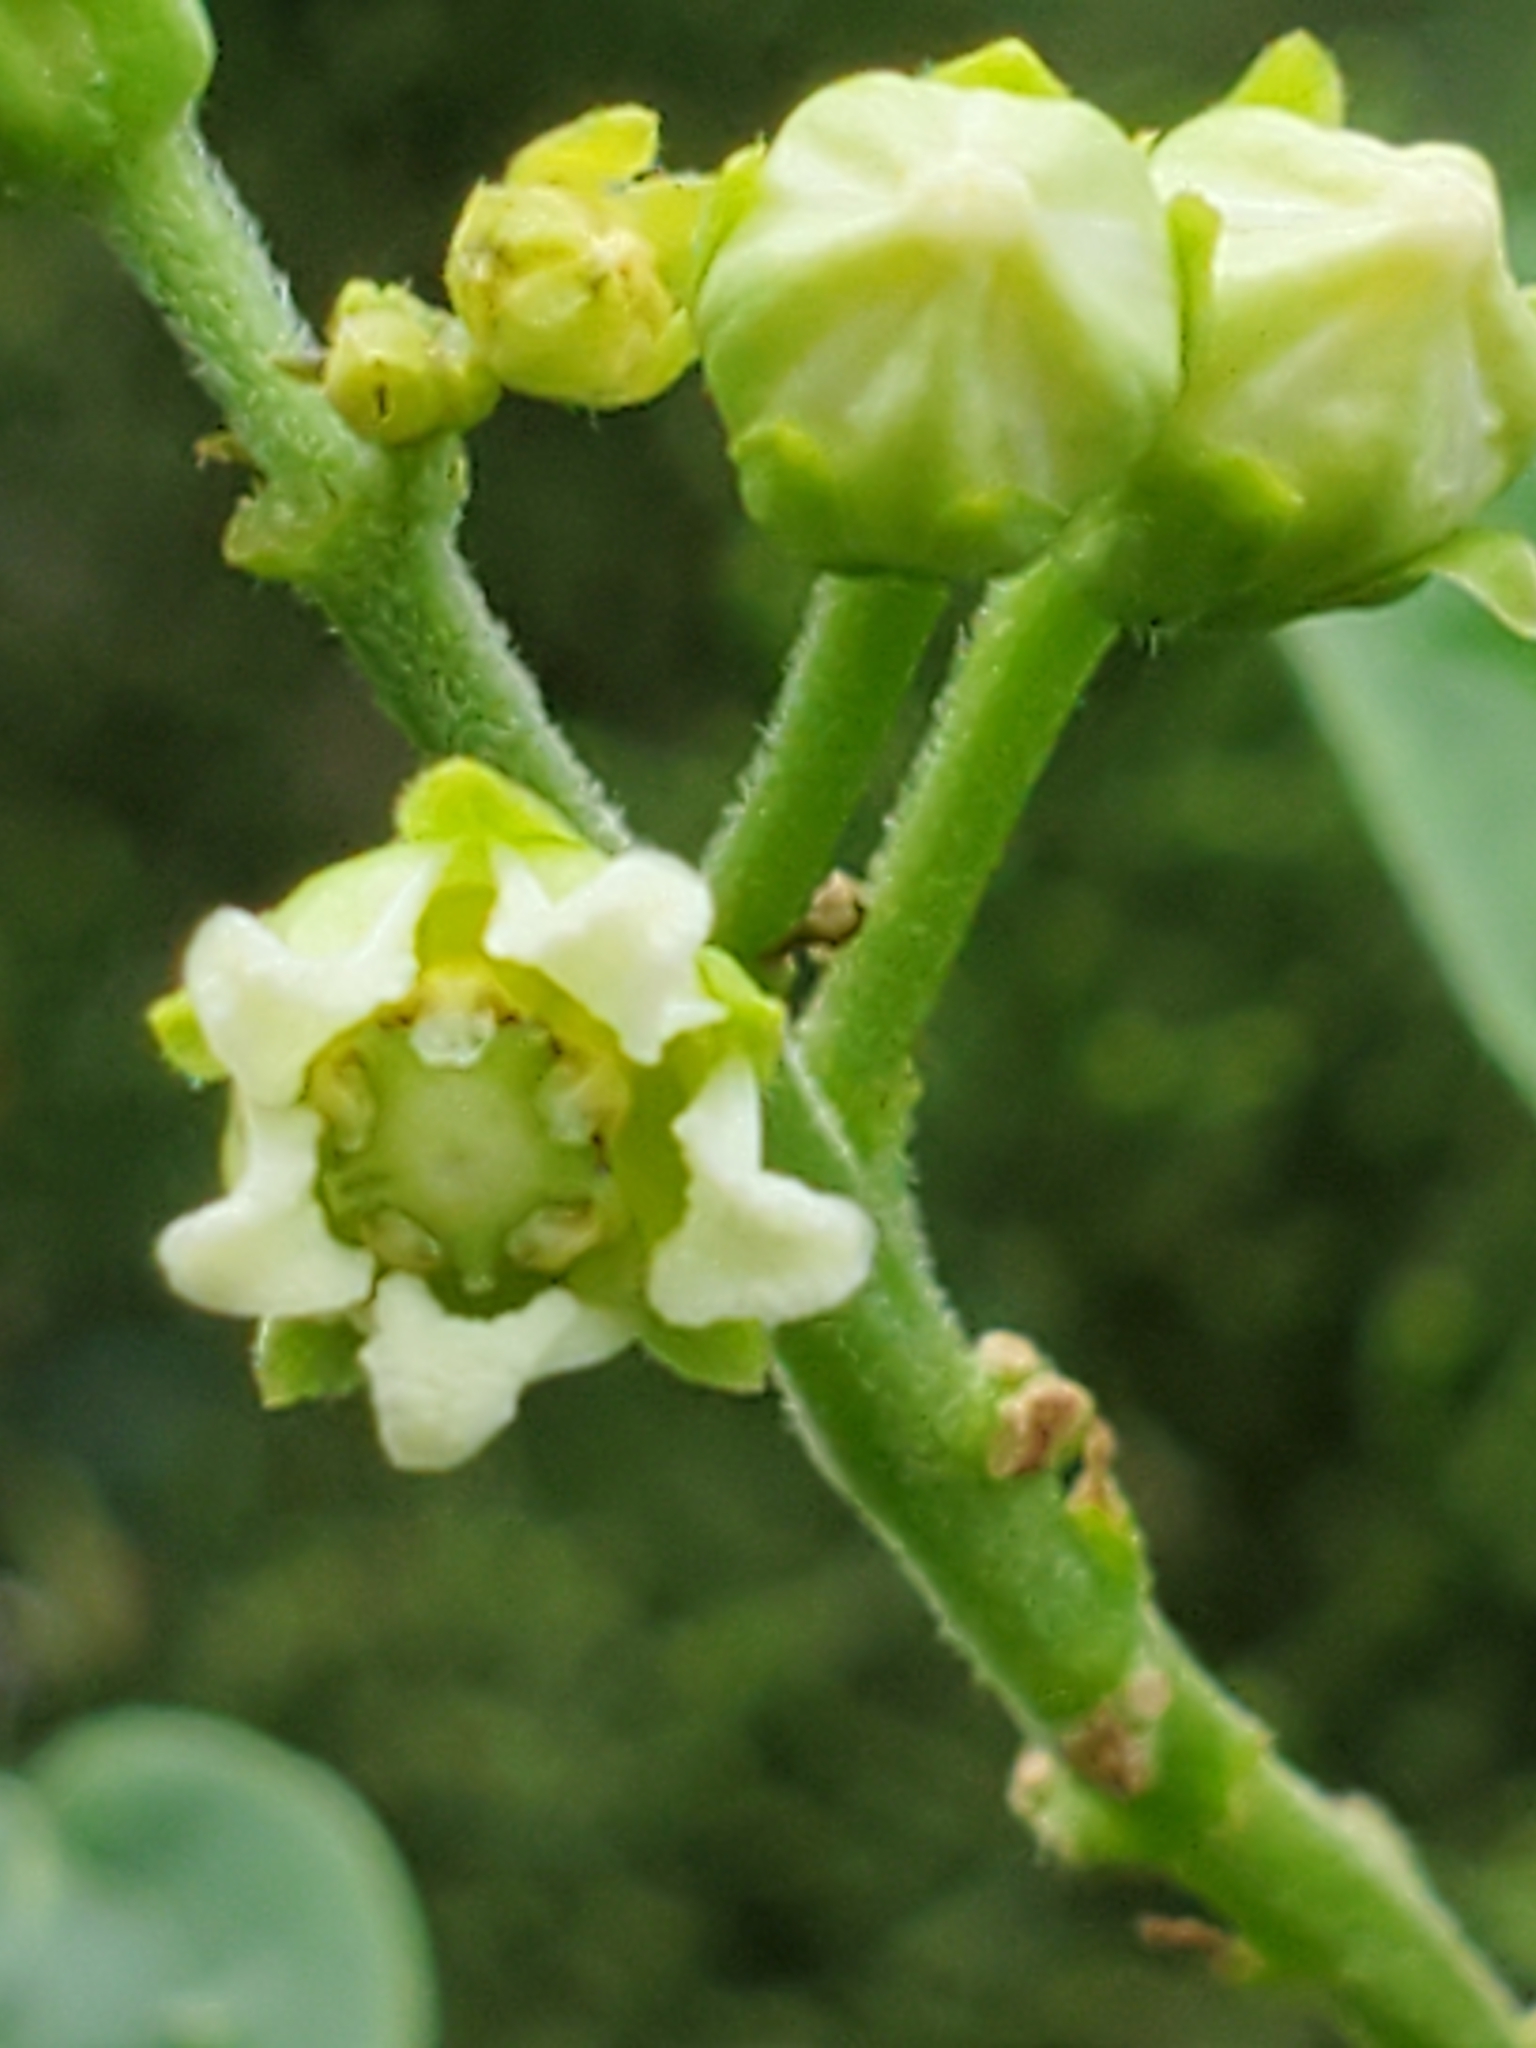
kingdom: Plantae
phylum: Tracheophyta
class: Magnoliopsida
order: Gentianales
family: Apocynaceae
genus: Cynanchum
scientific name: Cynanchum racemosum
